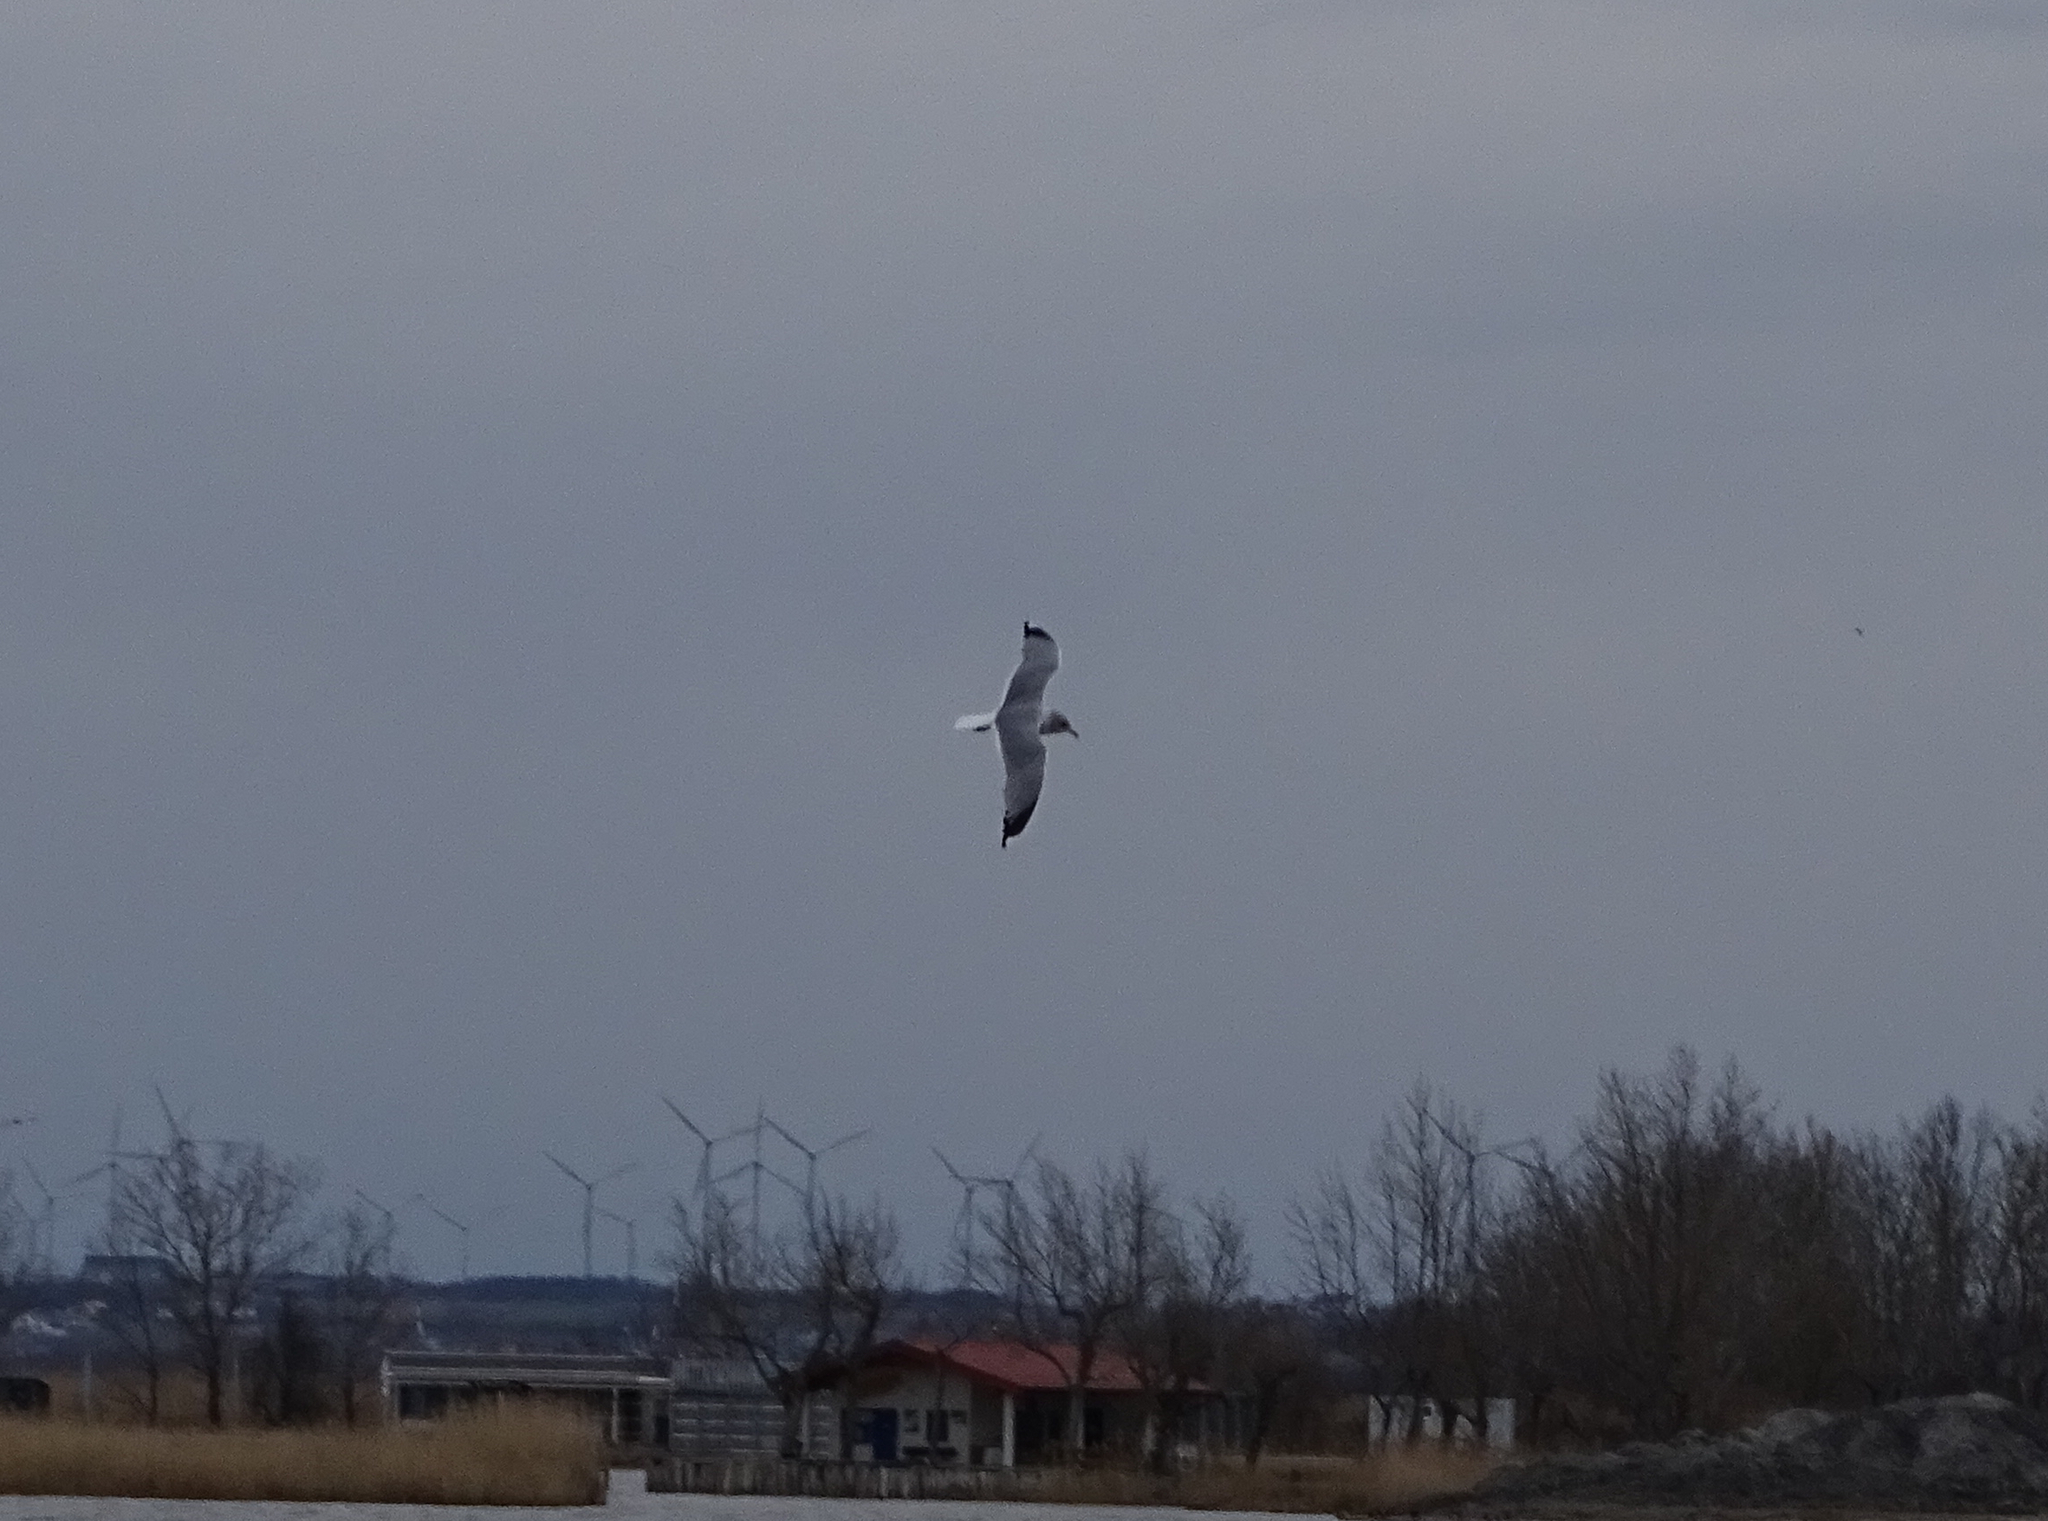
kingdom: Animalia
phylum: Chordata
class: Aves
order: Charadriiformes
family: Laridae
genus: Larus
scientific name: Larus canus
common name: Mew gull
